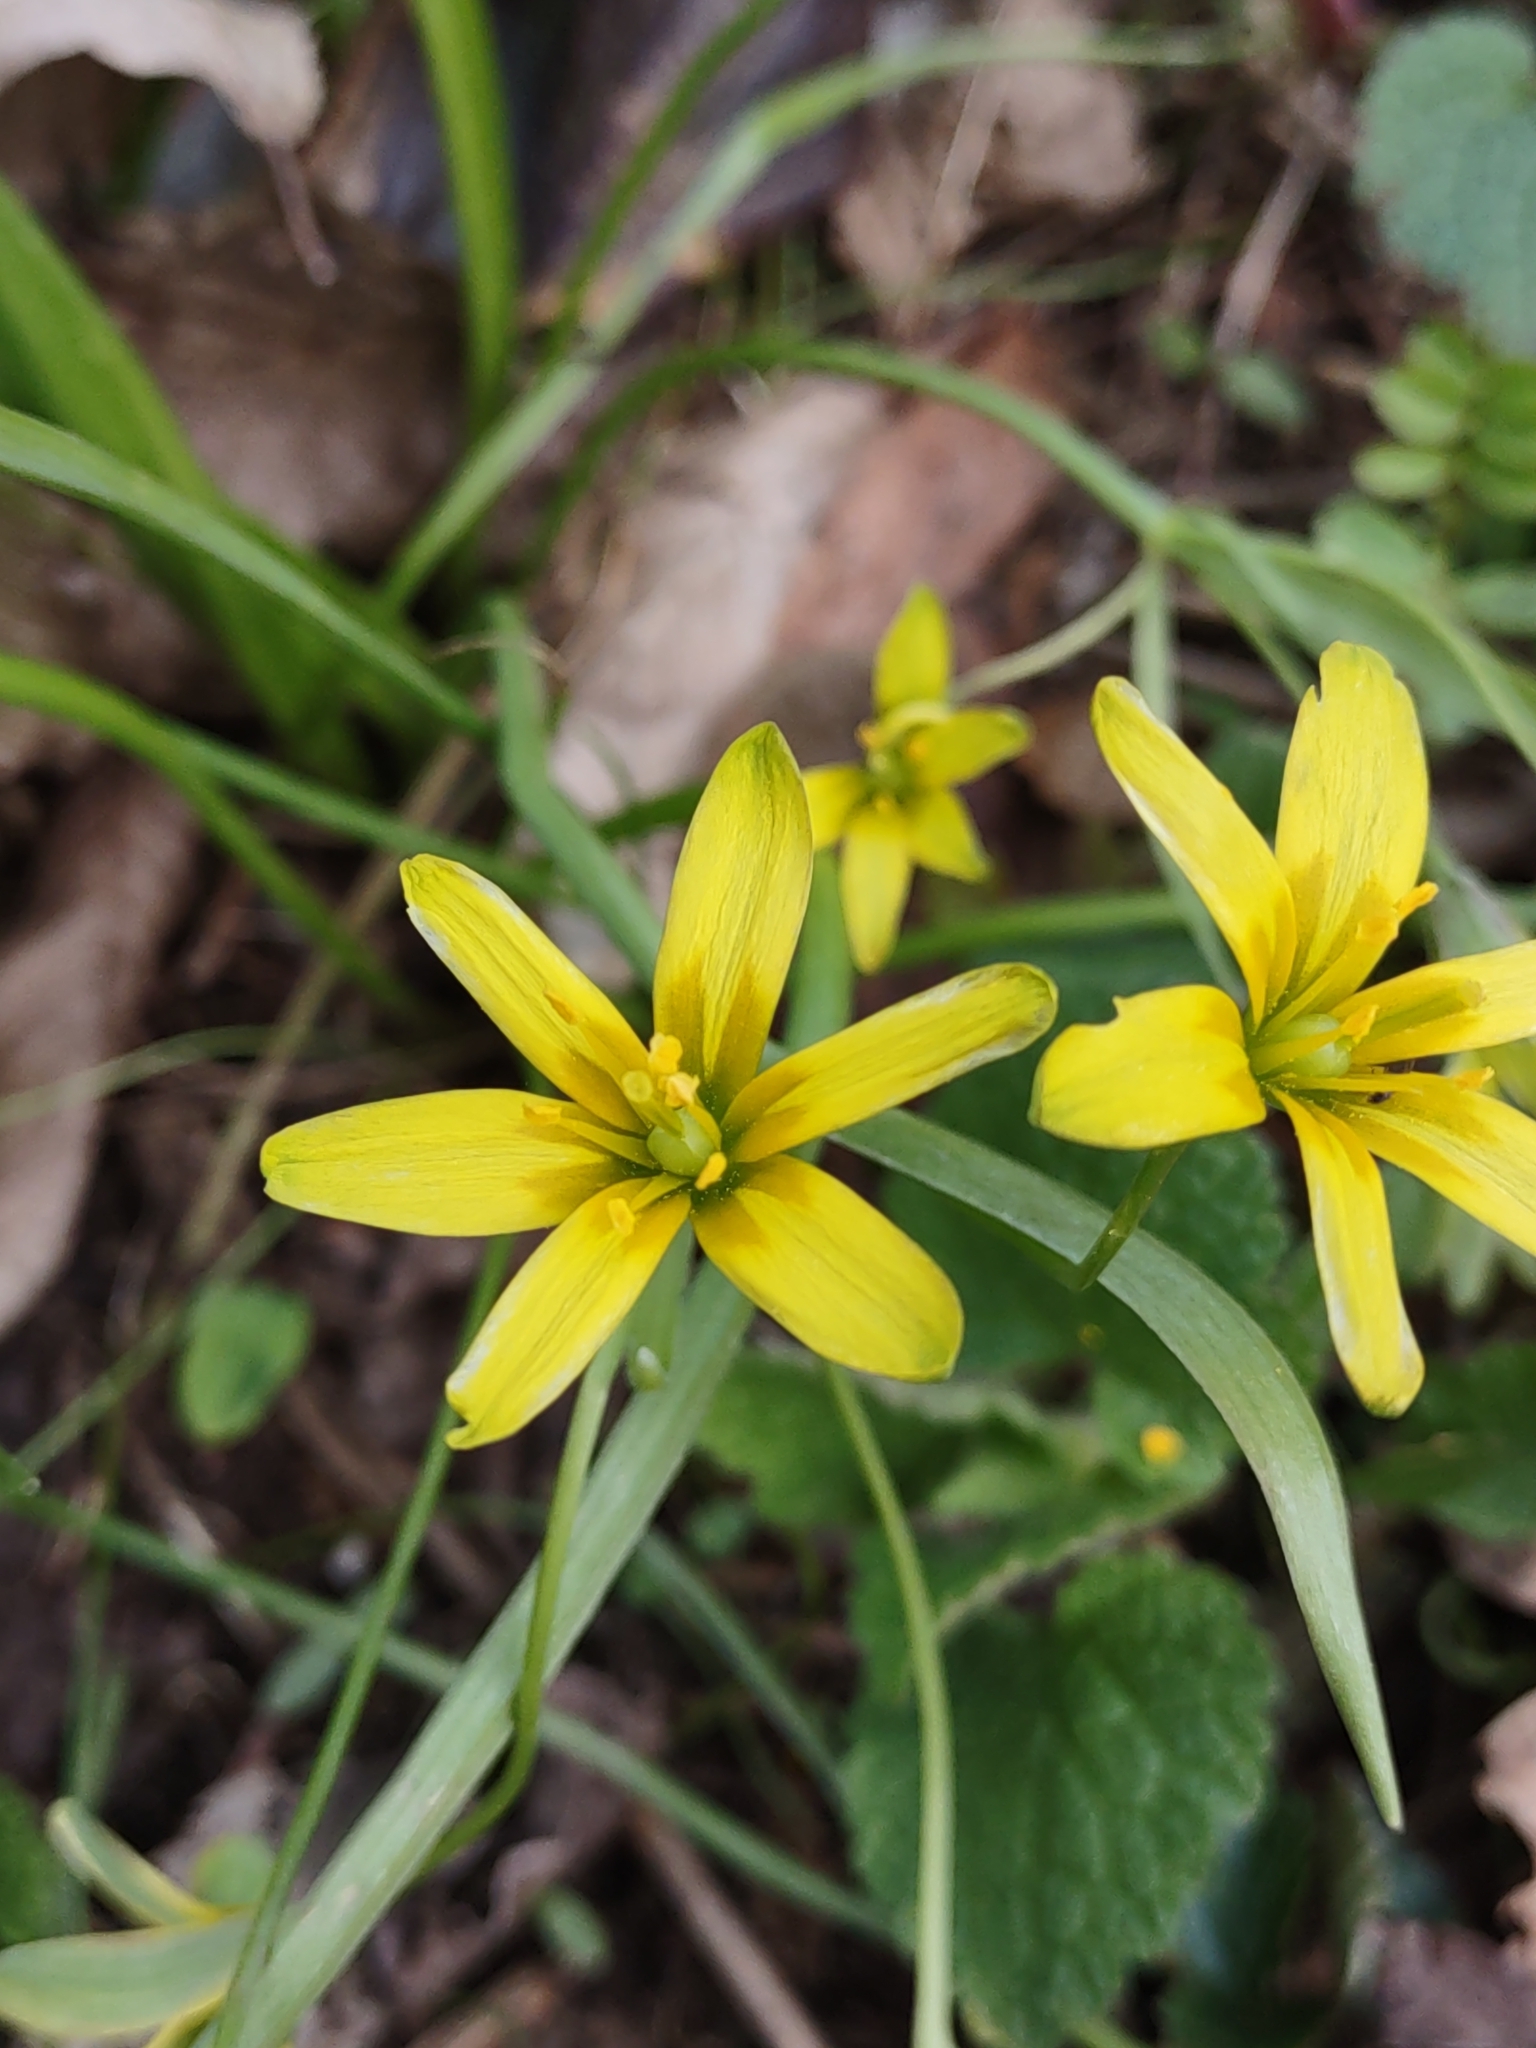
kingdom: Plantae
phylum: Tracheophyta
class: Liliopsida
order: Liliales
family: Liliaceae
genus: Gagea
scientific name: Gagea lutea
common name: Yellow star-of-bethlehem
